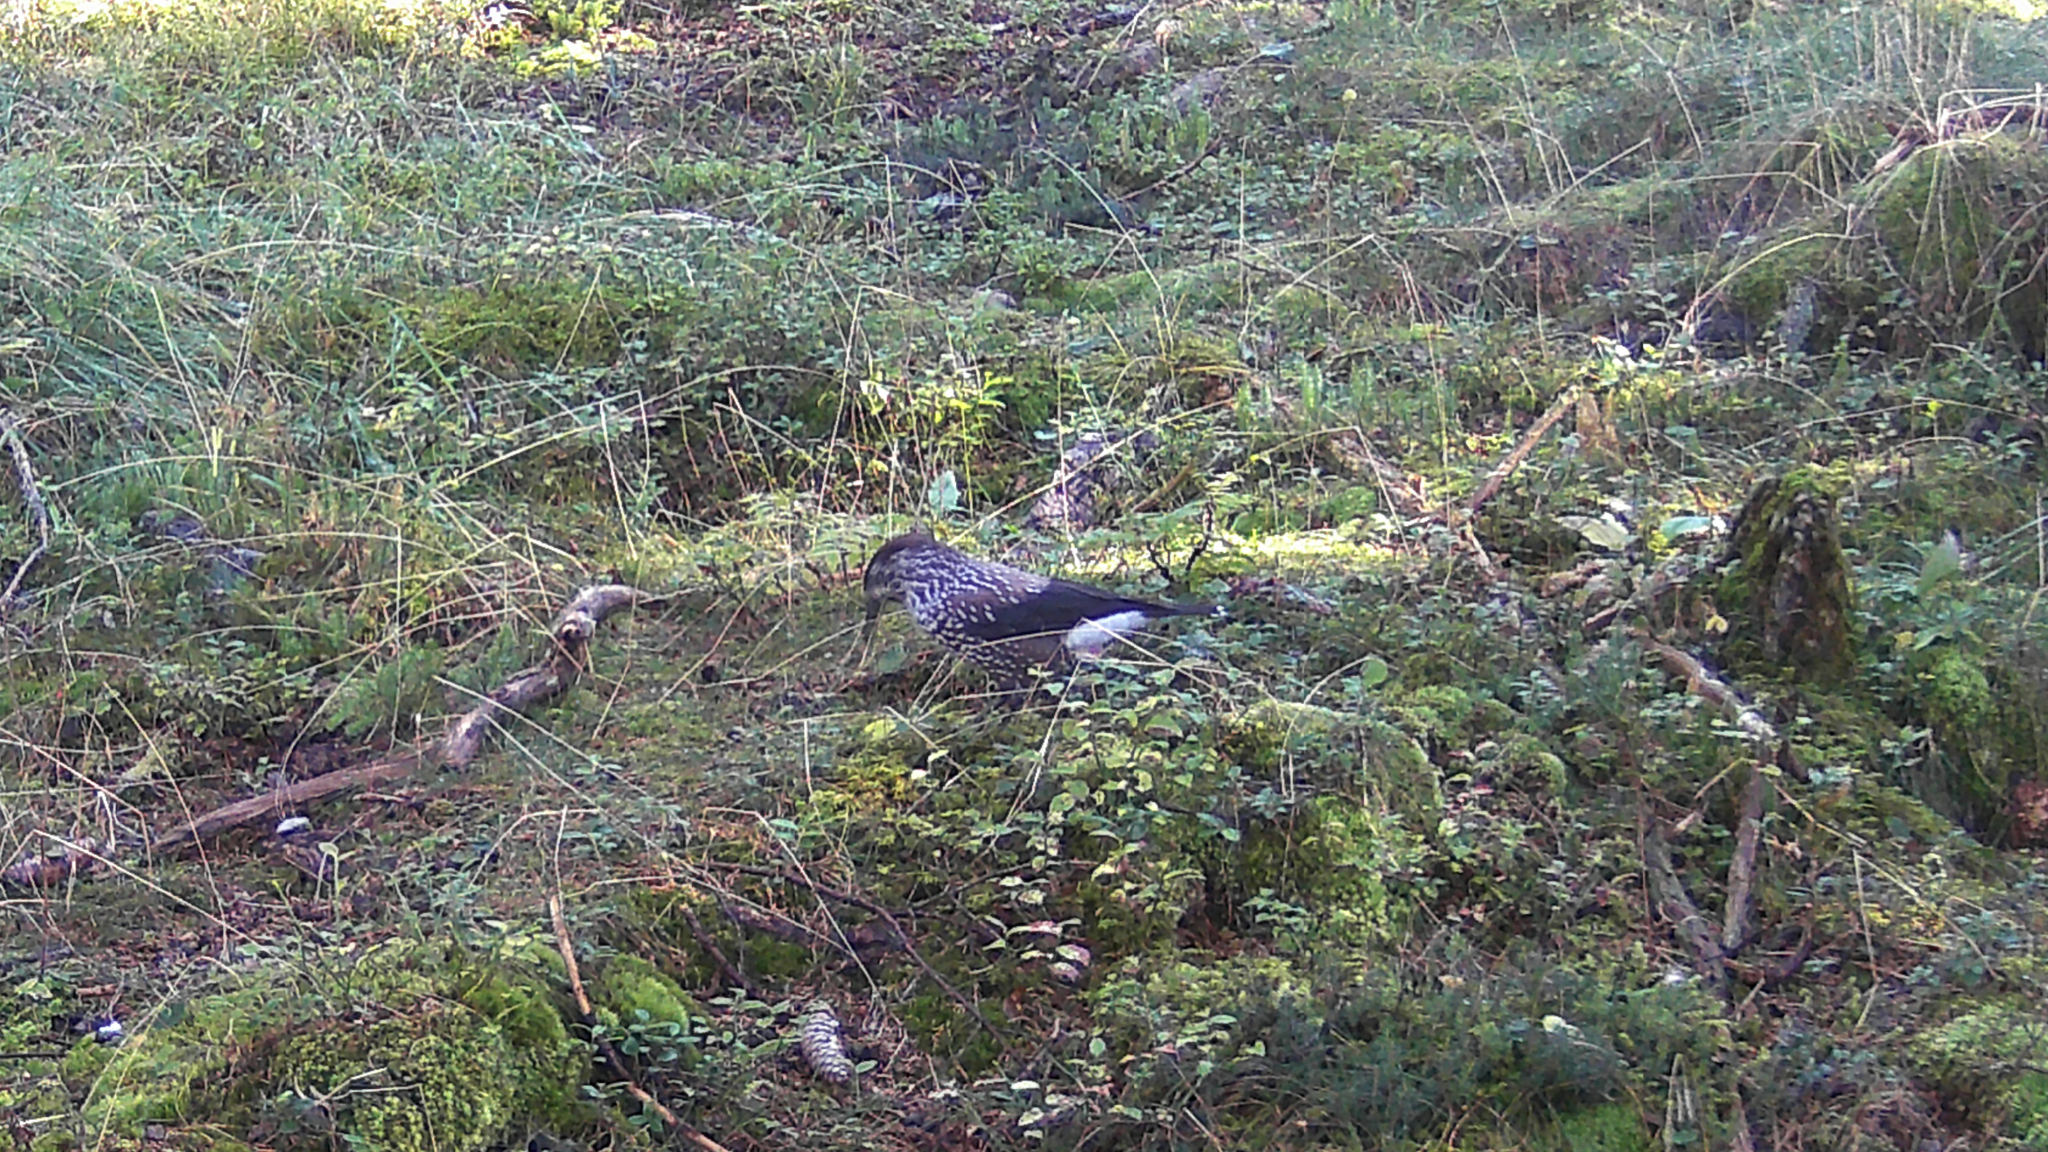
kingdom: Animalia
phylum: Chordata
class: Aves
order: Passeriformes
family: Corvidae
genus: Nucifraga
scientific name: Nucifraga caryocatactes
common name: Spotted nutcracker
